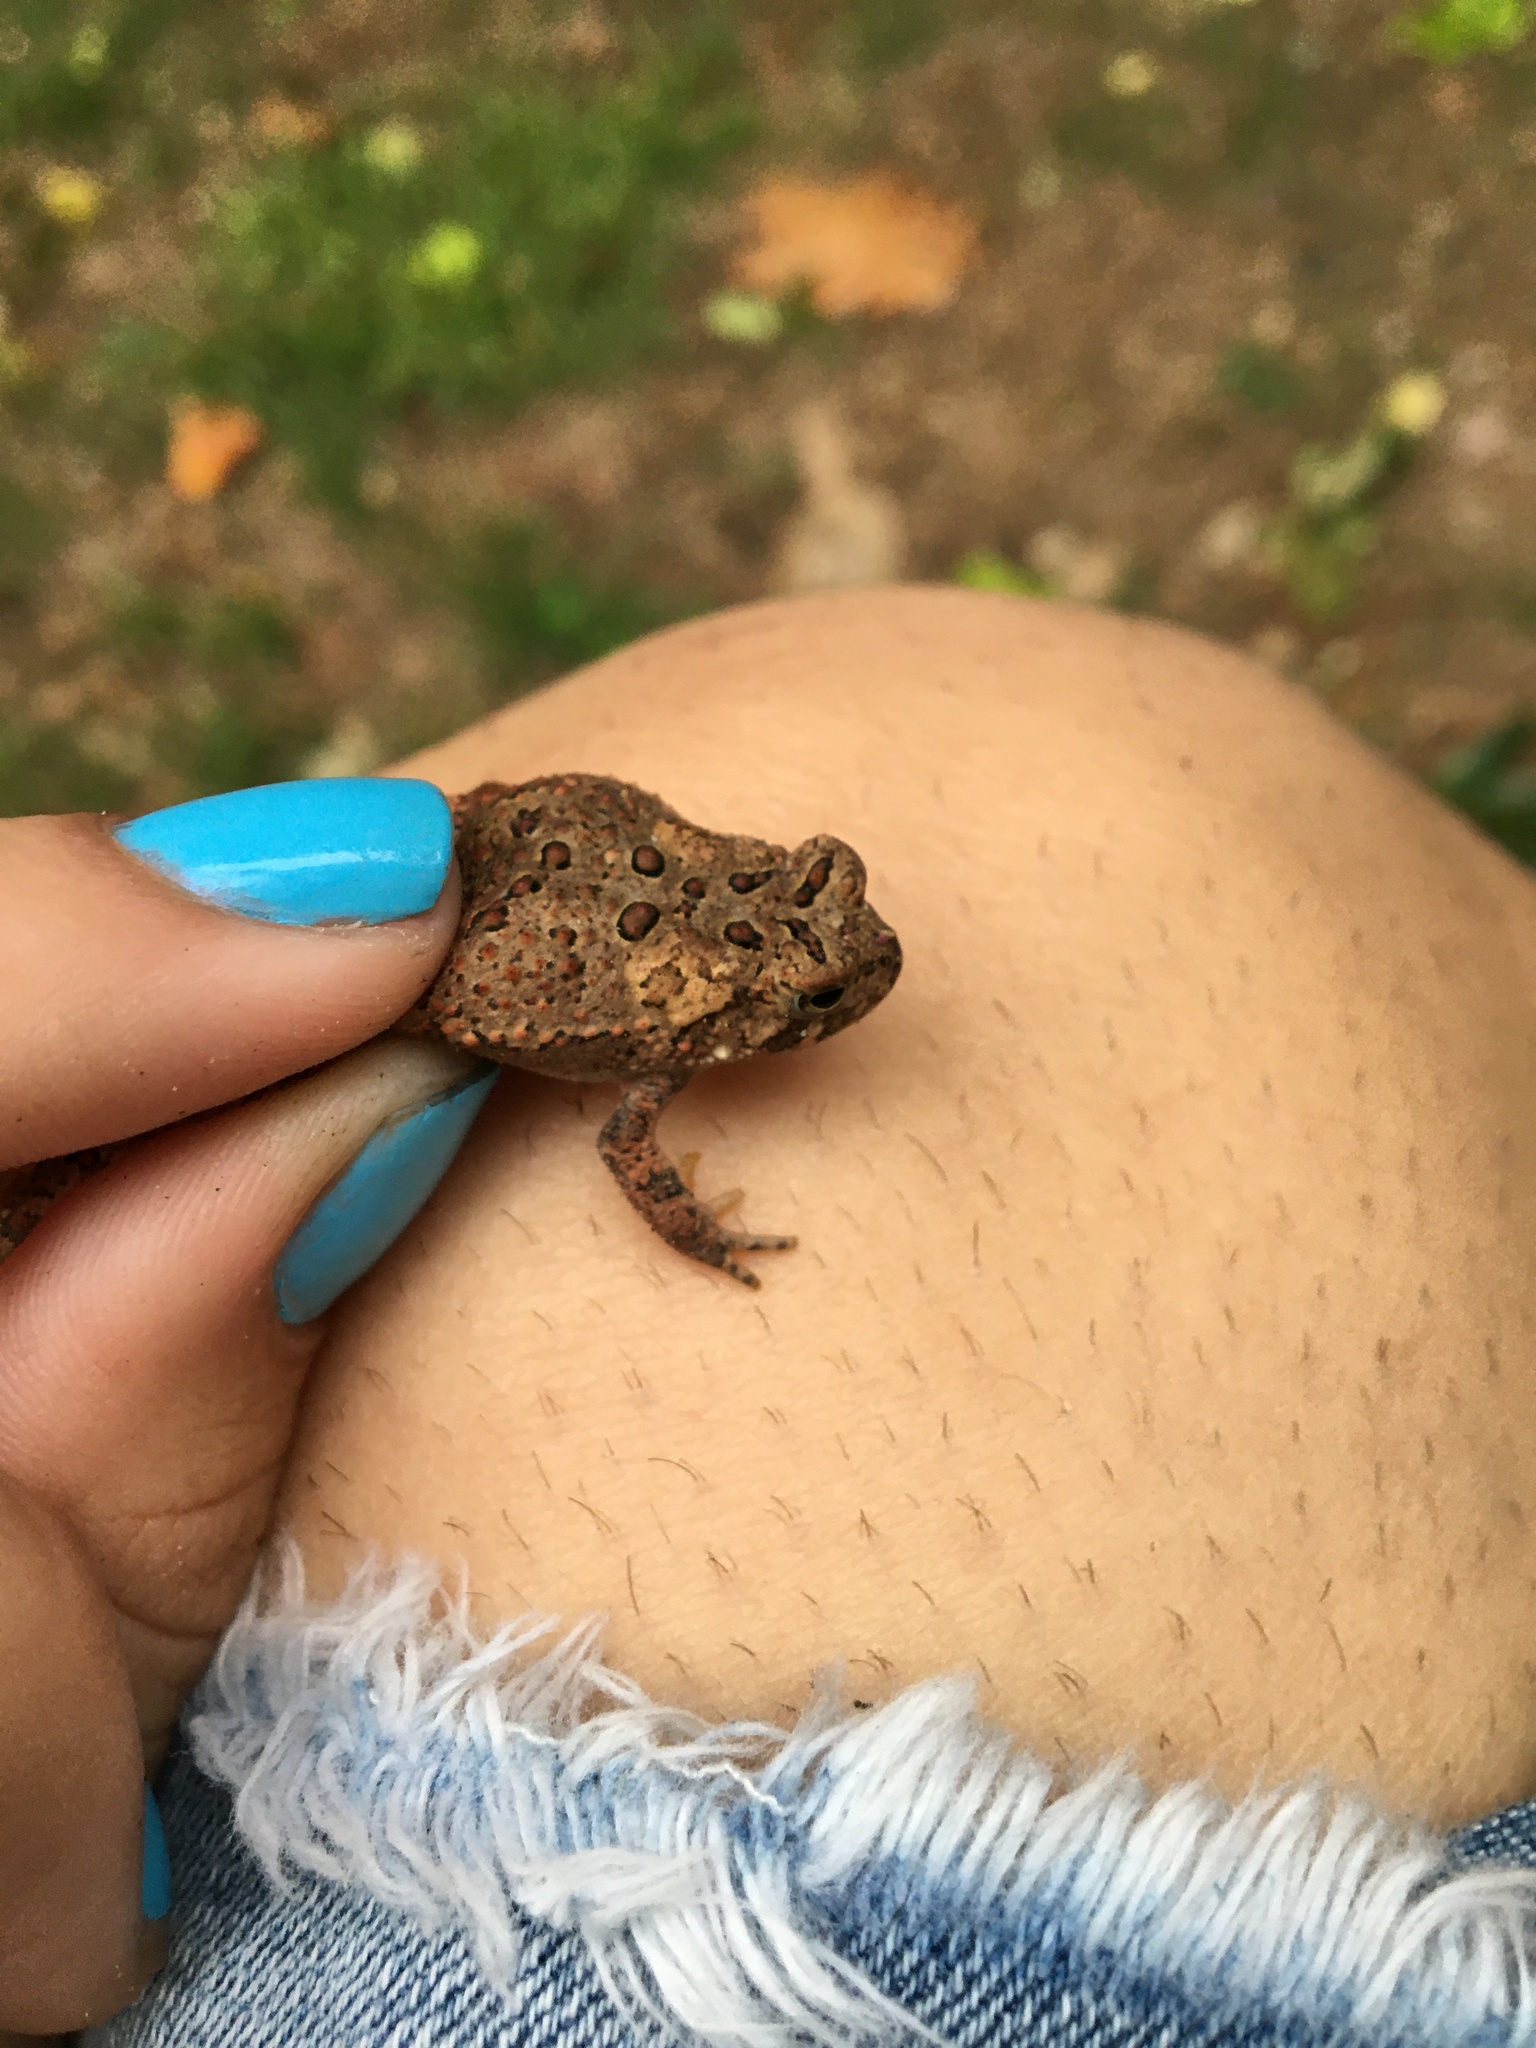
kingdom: Animalia
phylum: Chordata
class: Amphibia
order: Anura
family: Bufonidae
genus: Anaxyrus
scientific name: Anaxyrus americanus
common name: American toad
